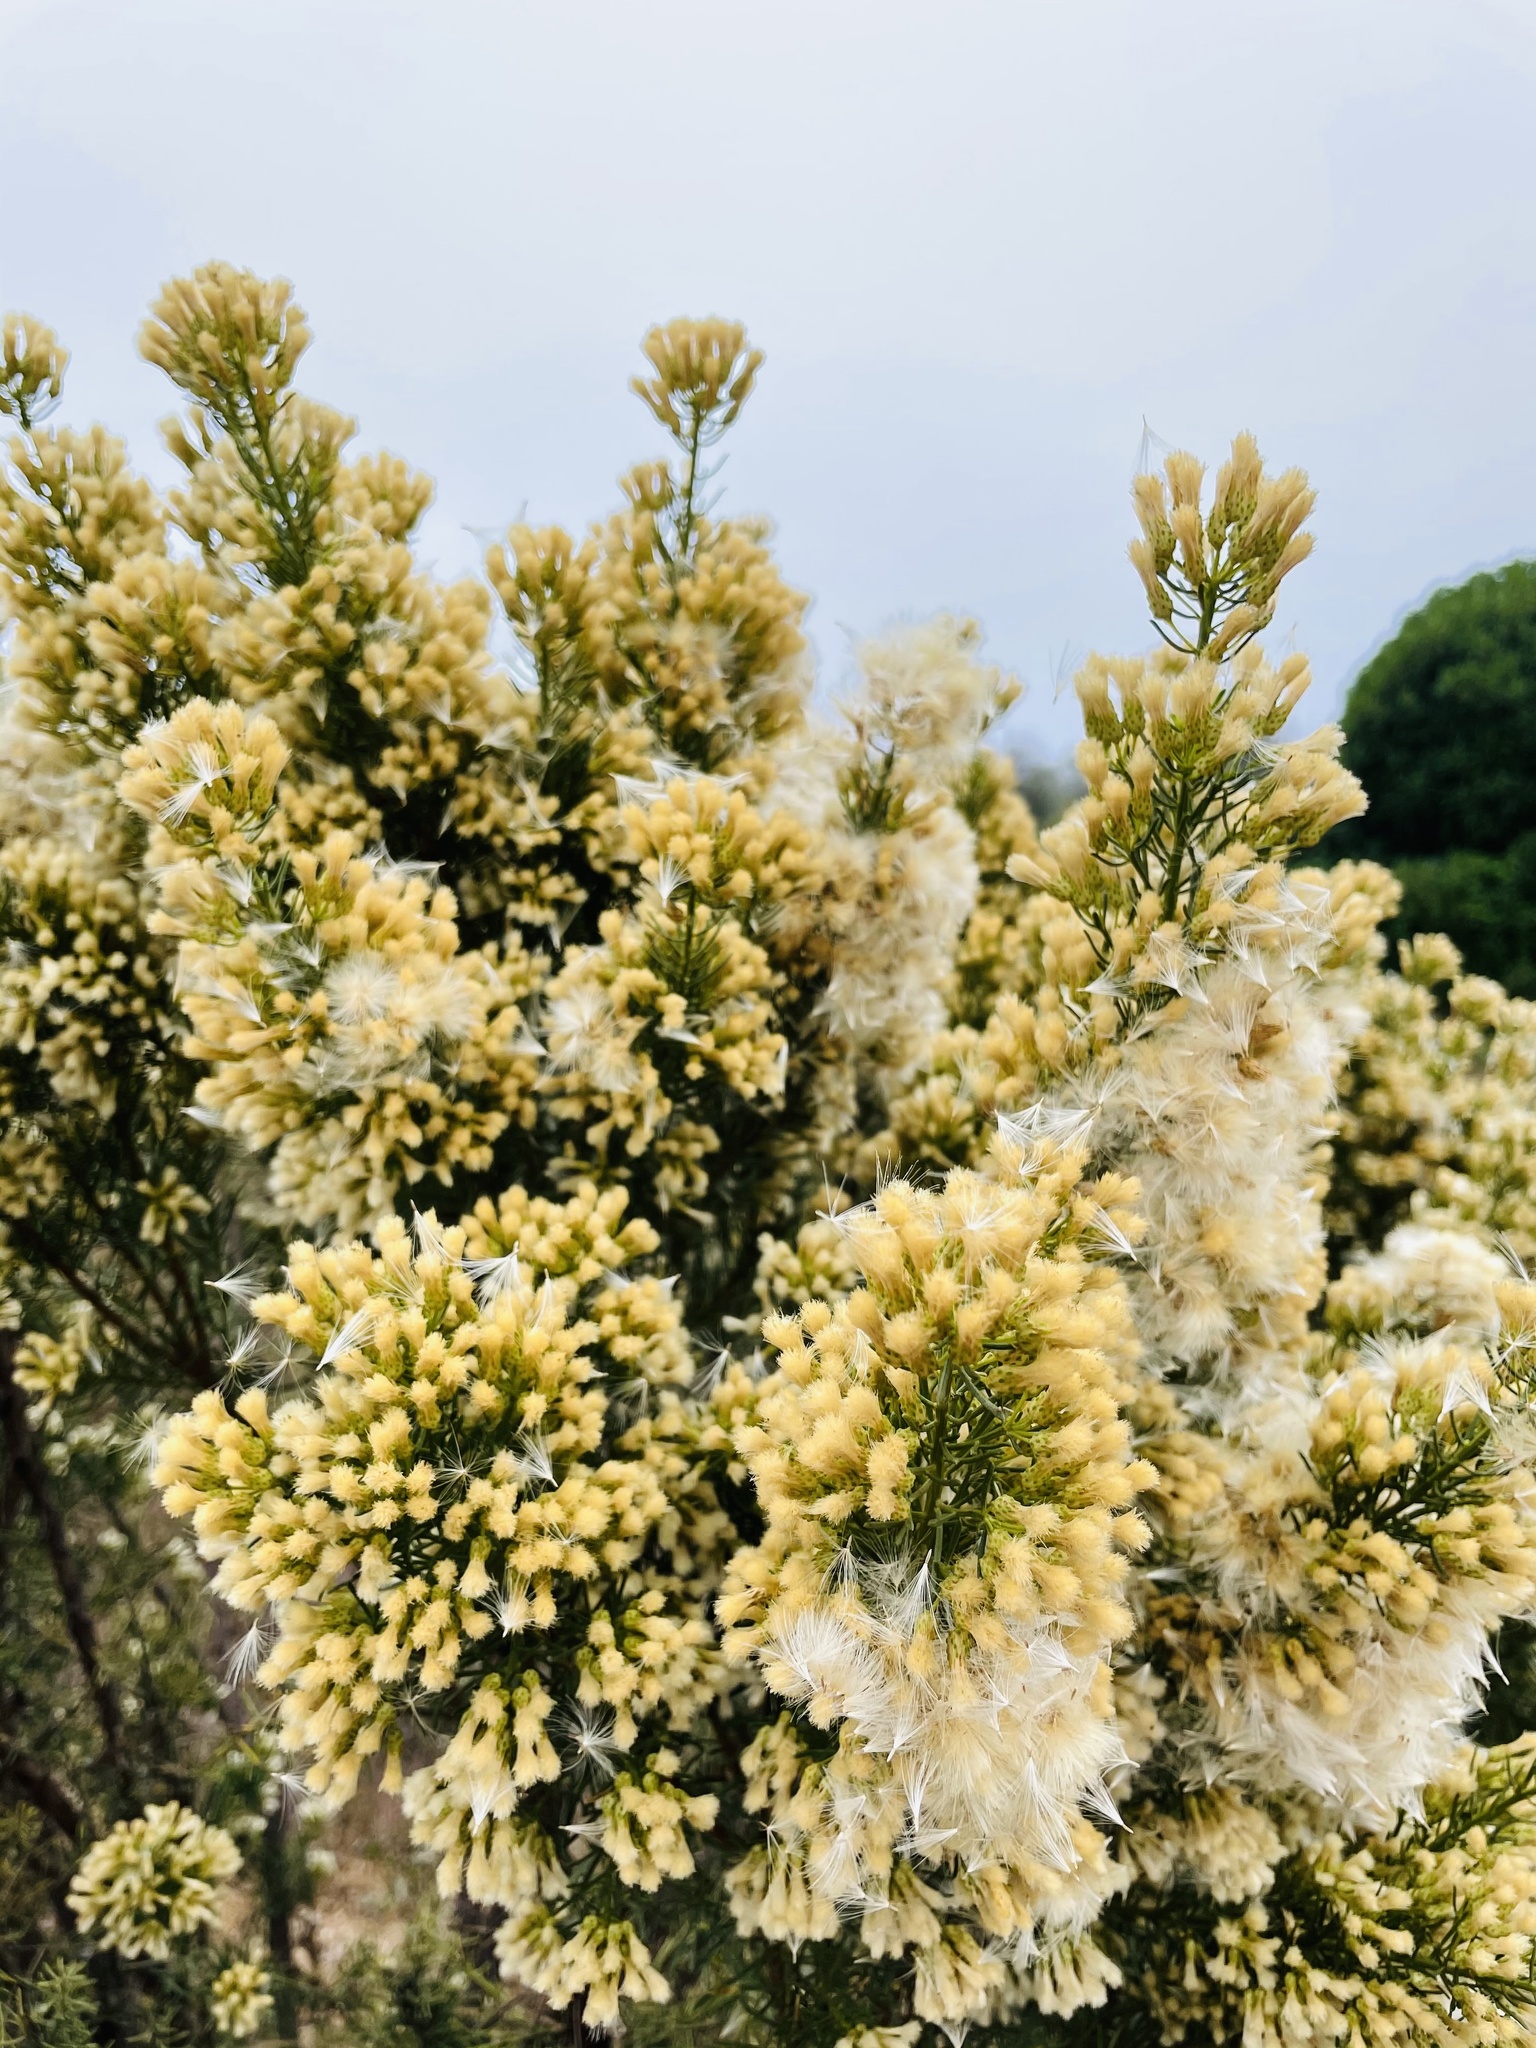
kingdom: Plantae
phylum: Tracheophyta
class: Magnoliopsida
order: Asterales
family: Asteraceae
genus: Baccharis
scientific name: Baccharis linearis
